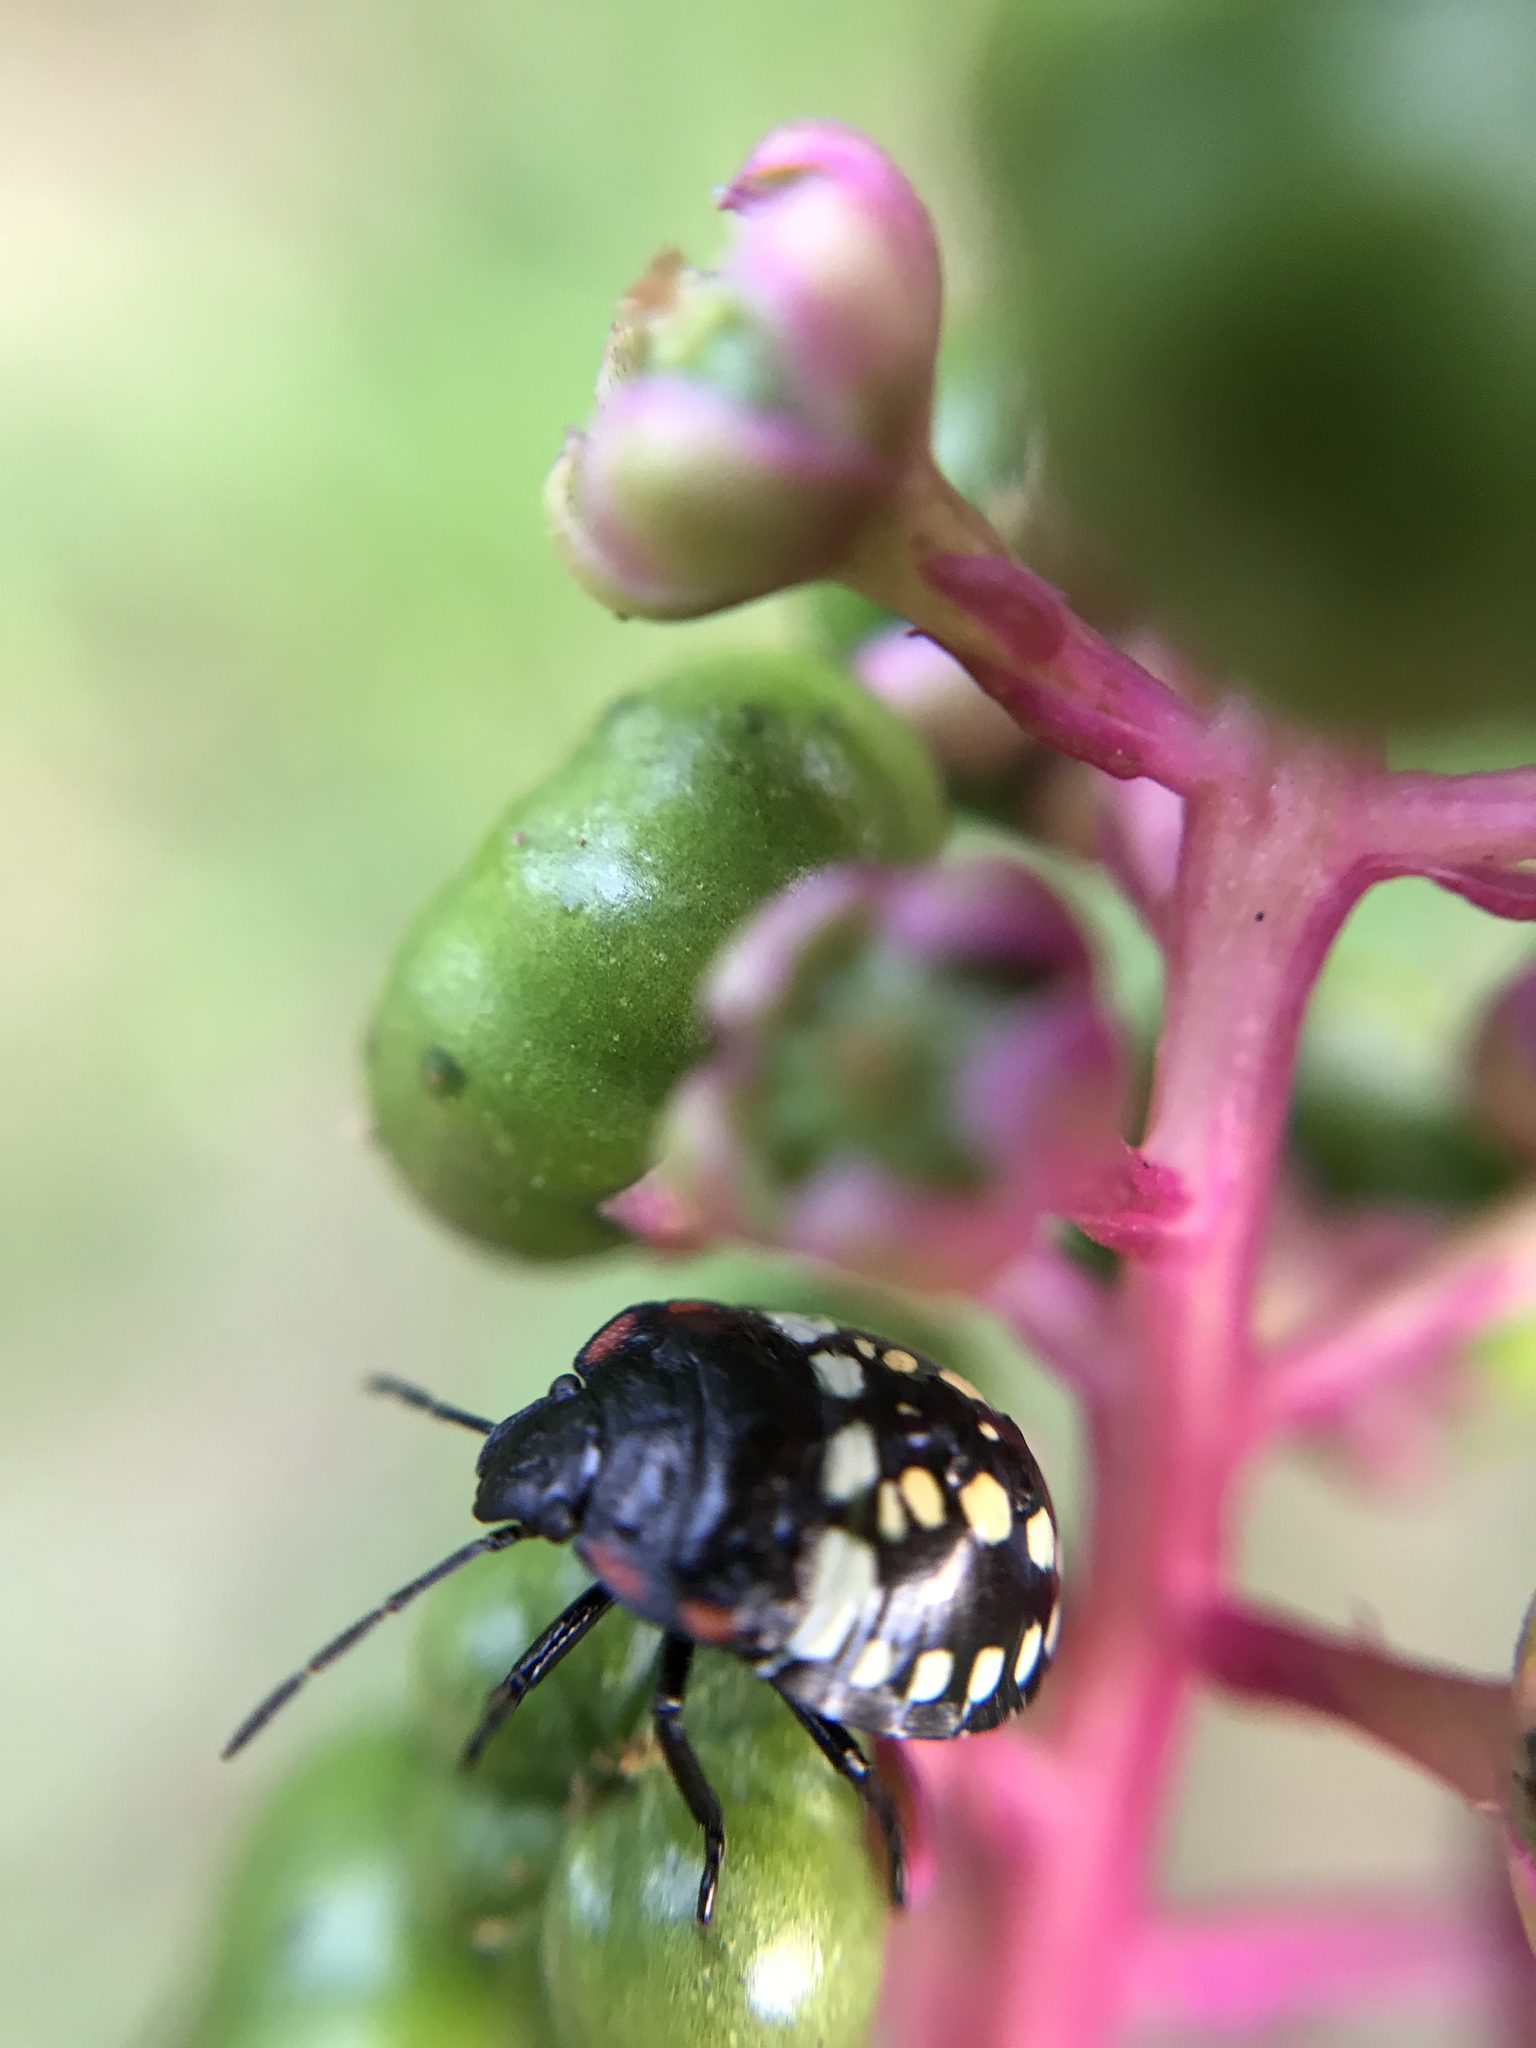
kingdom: Animalia
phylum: Arthropoda
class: Insecta
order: Hemiptera
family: Pentatomidae
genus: Nezara
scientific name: Nezara viridula
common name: Southern green stink bug
